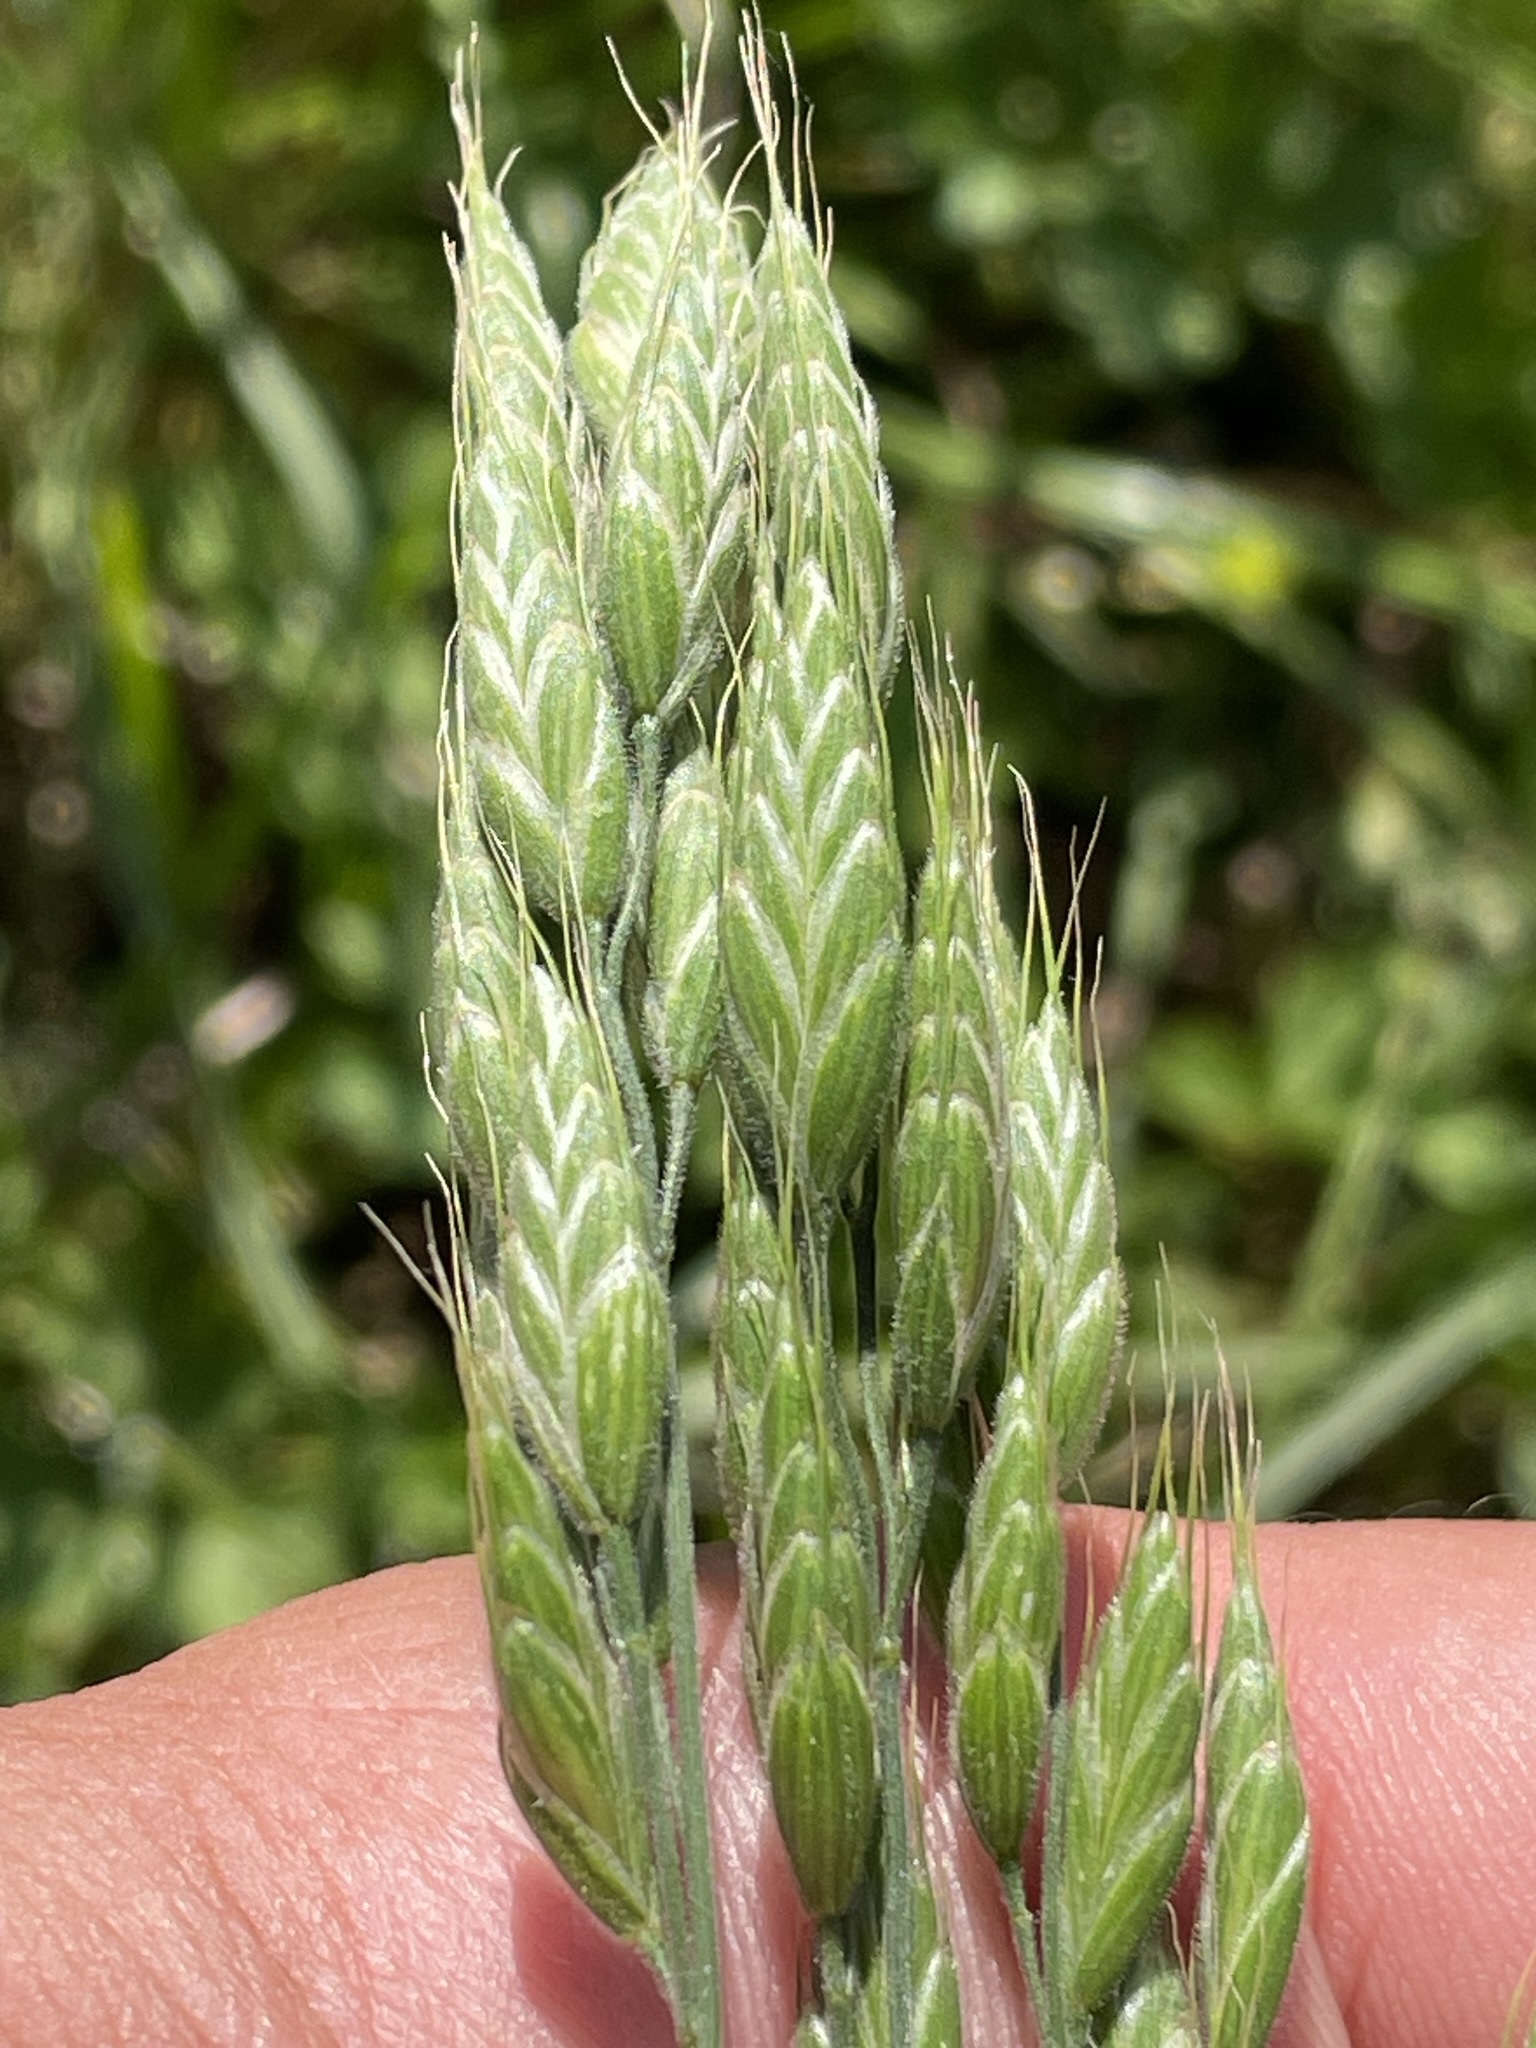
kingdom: Plantae
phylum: Tracheophyta
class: Liliopsida
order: Poales
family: Poaceae
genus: Bromus
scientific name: Bromus hordeaceus
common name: Soft brome
